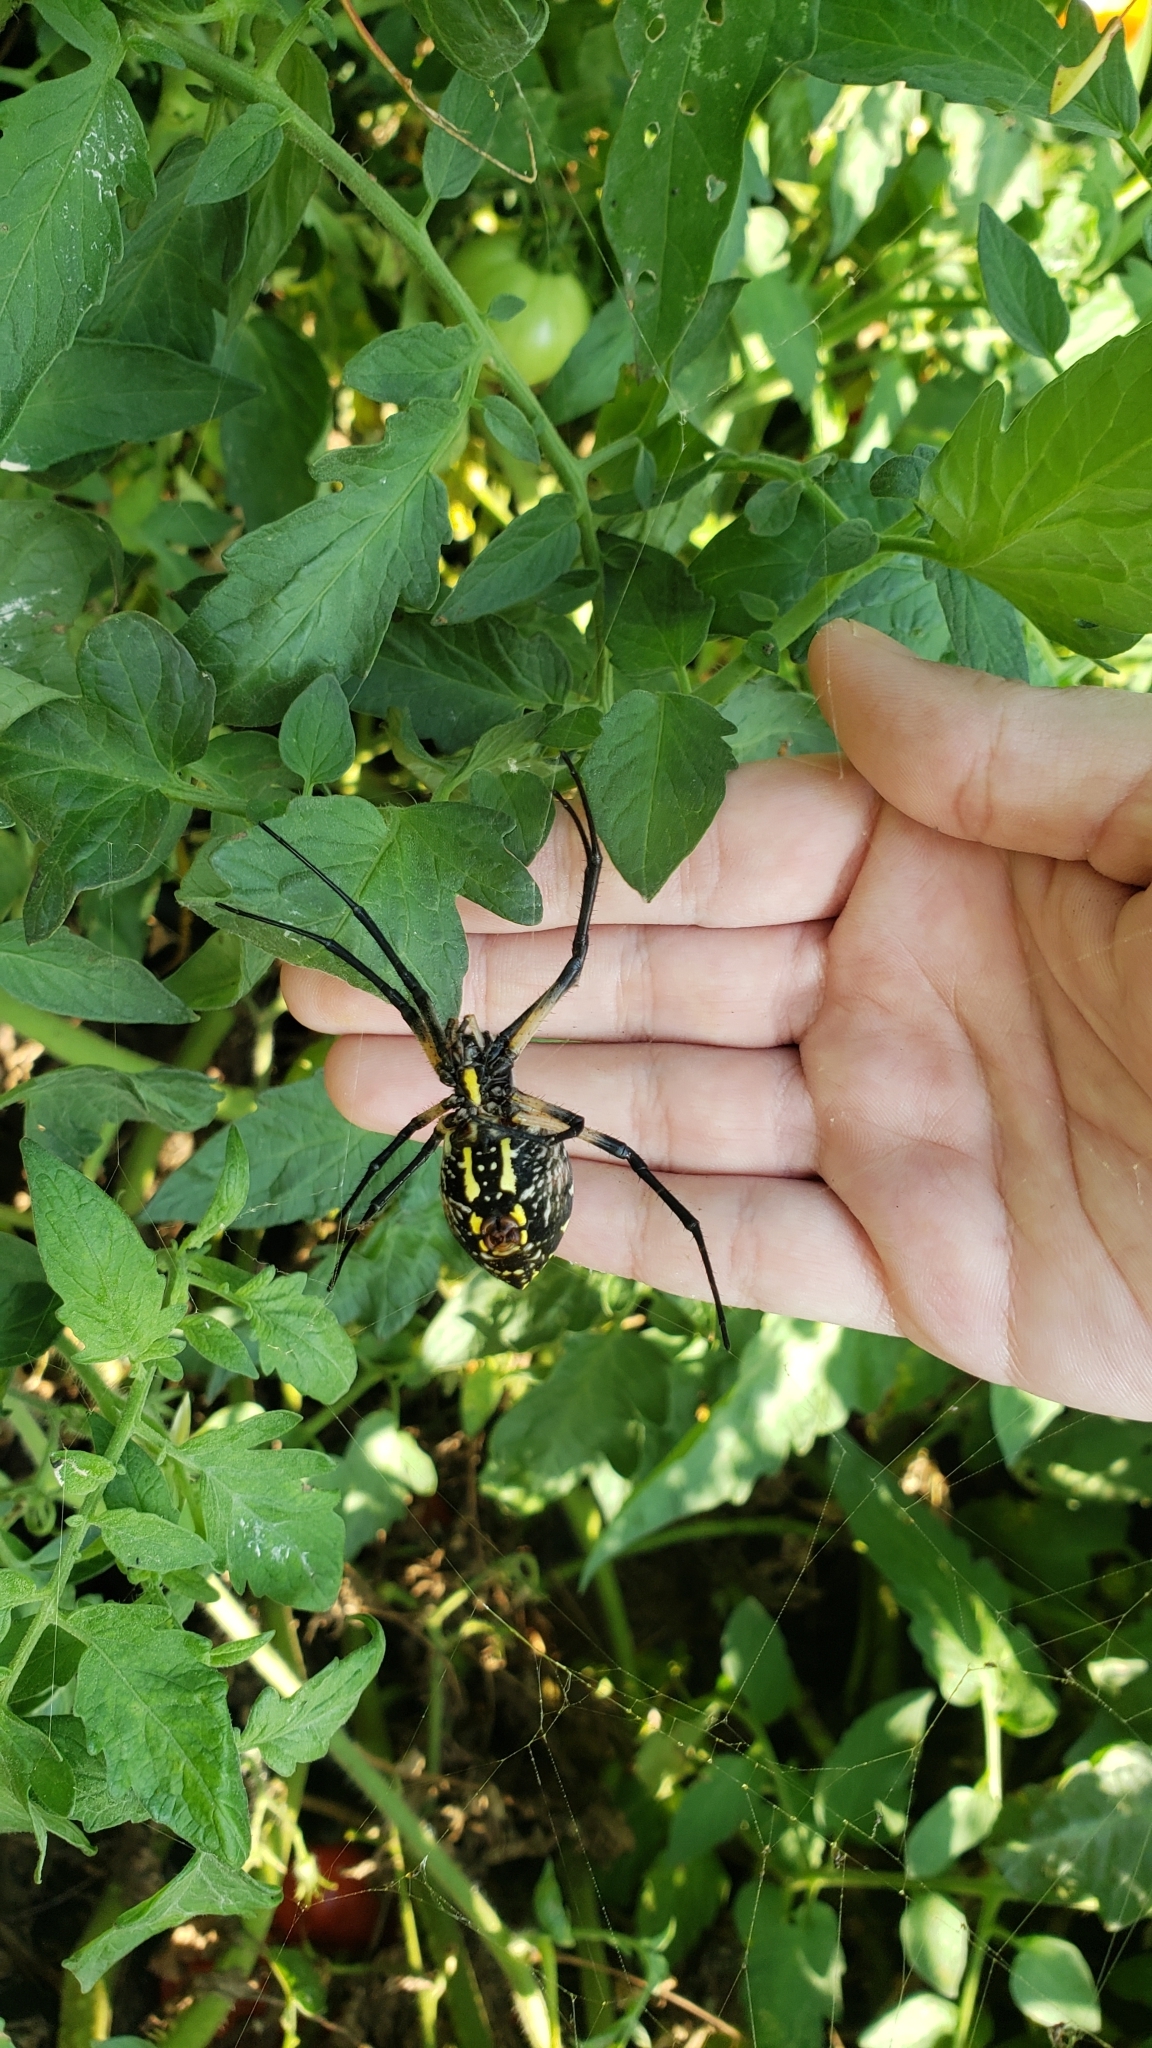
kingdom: Animalia
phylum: Arthropoda
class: Arachnida
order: Araneae
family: Araneidae
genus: Argiope
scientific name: Argiope aurantia
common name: Orb weavers
